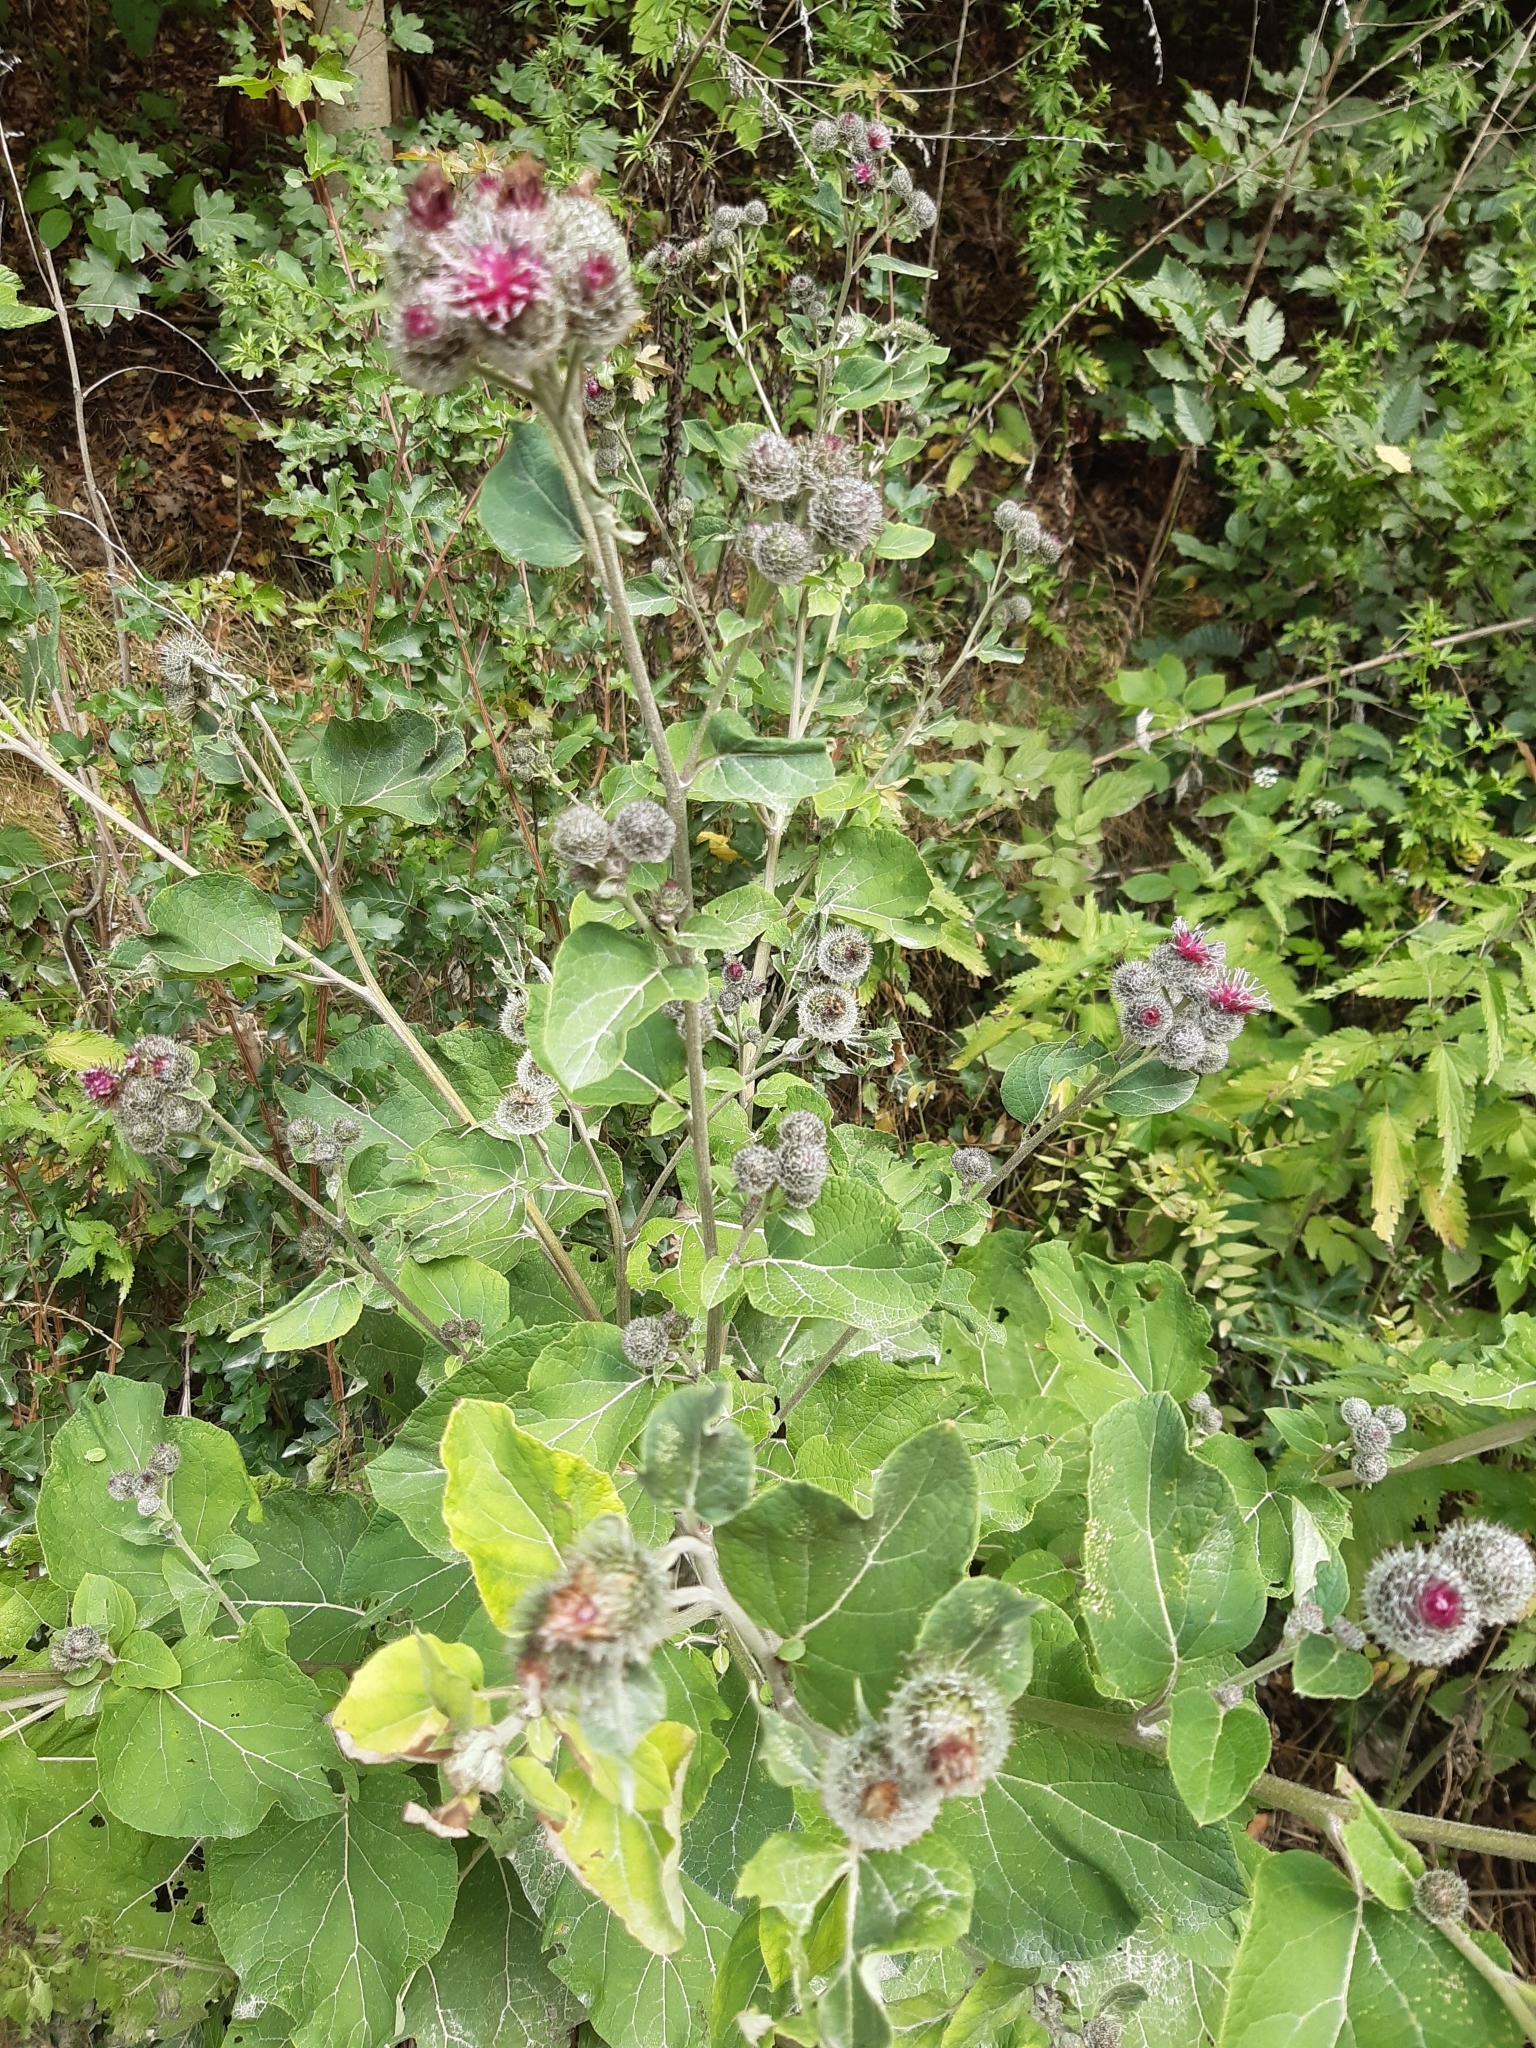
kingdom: Plantae
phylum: Tracheophyta
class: Magnoliopsida
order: Asterales
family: Asteraceae
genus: Arctium
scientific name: Arctium tomentosum
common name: Woolly burdock
